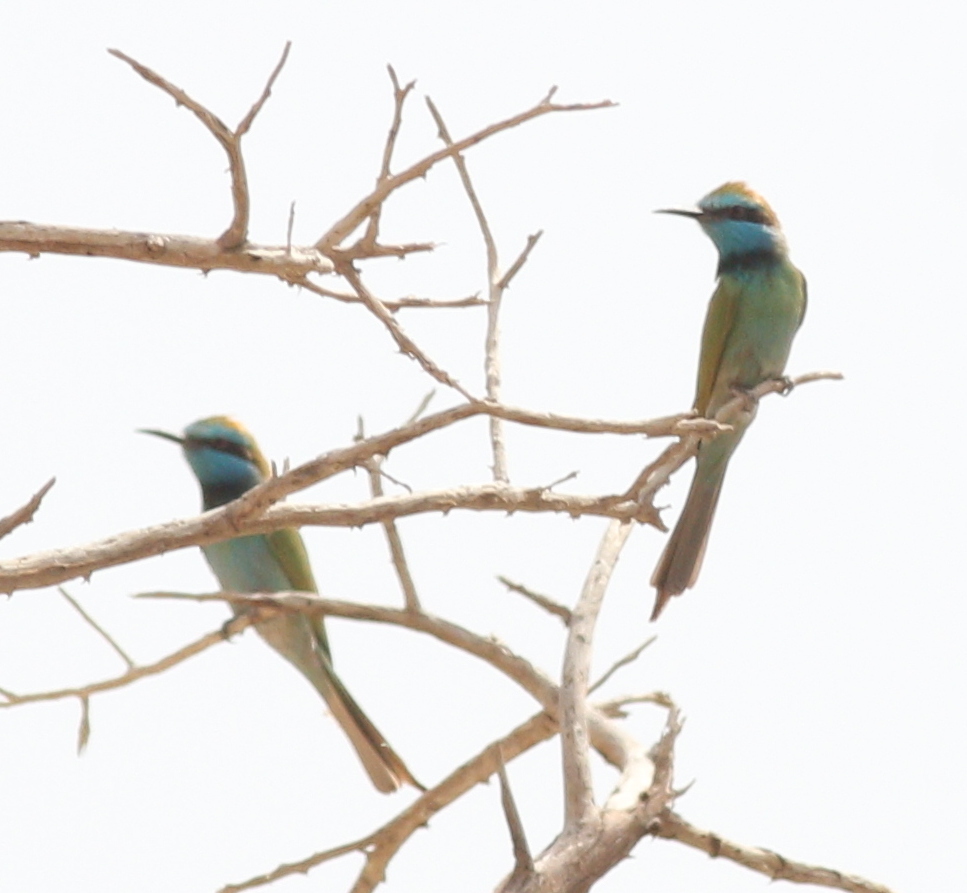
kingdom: Animalia
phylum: Chordata
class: Aves
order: Coraciiformes
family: Meropidae
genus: Merops
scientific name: Merops cyanophrys
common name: Arabian green bee-eater
